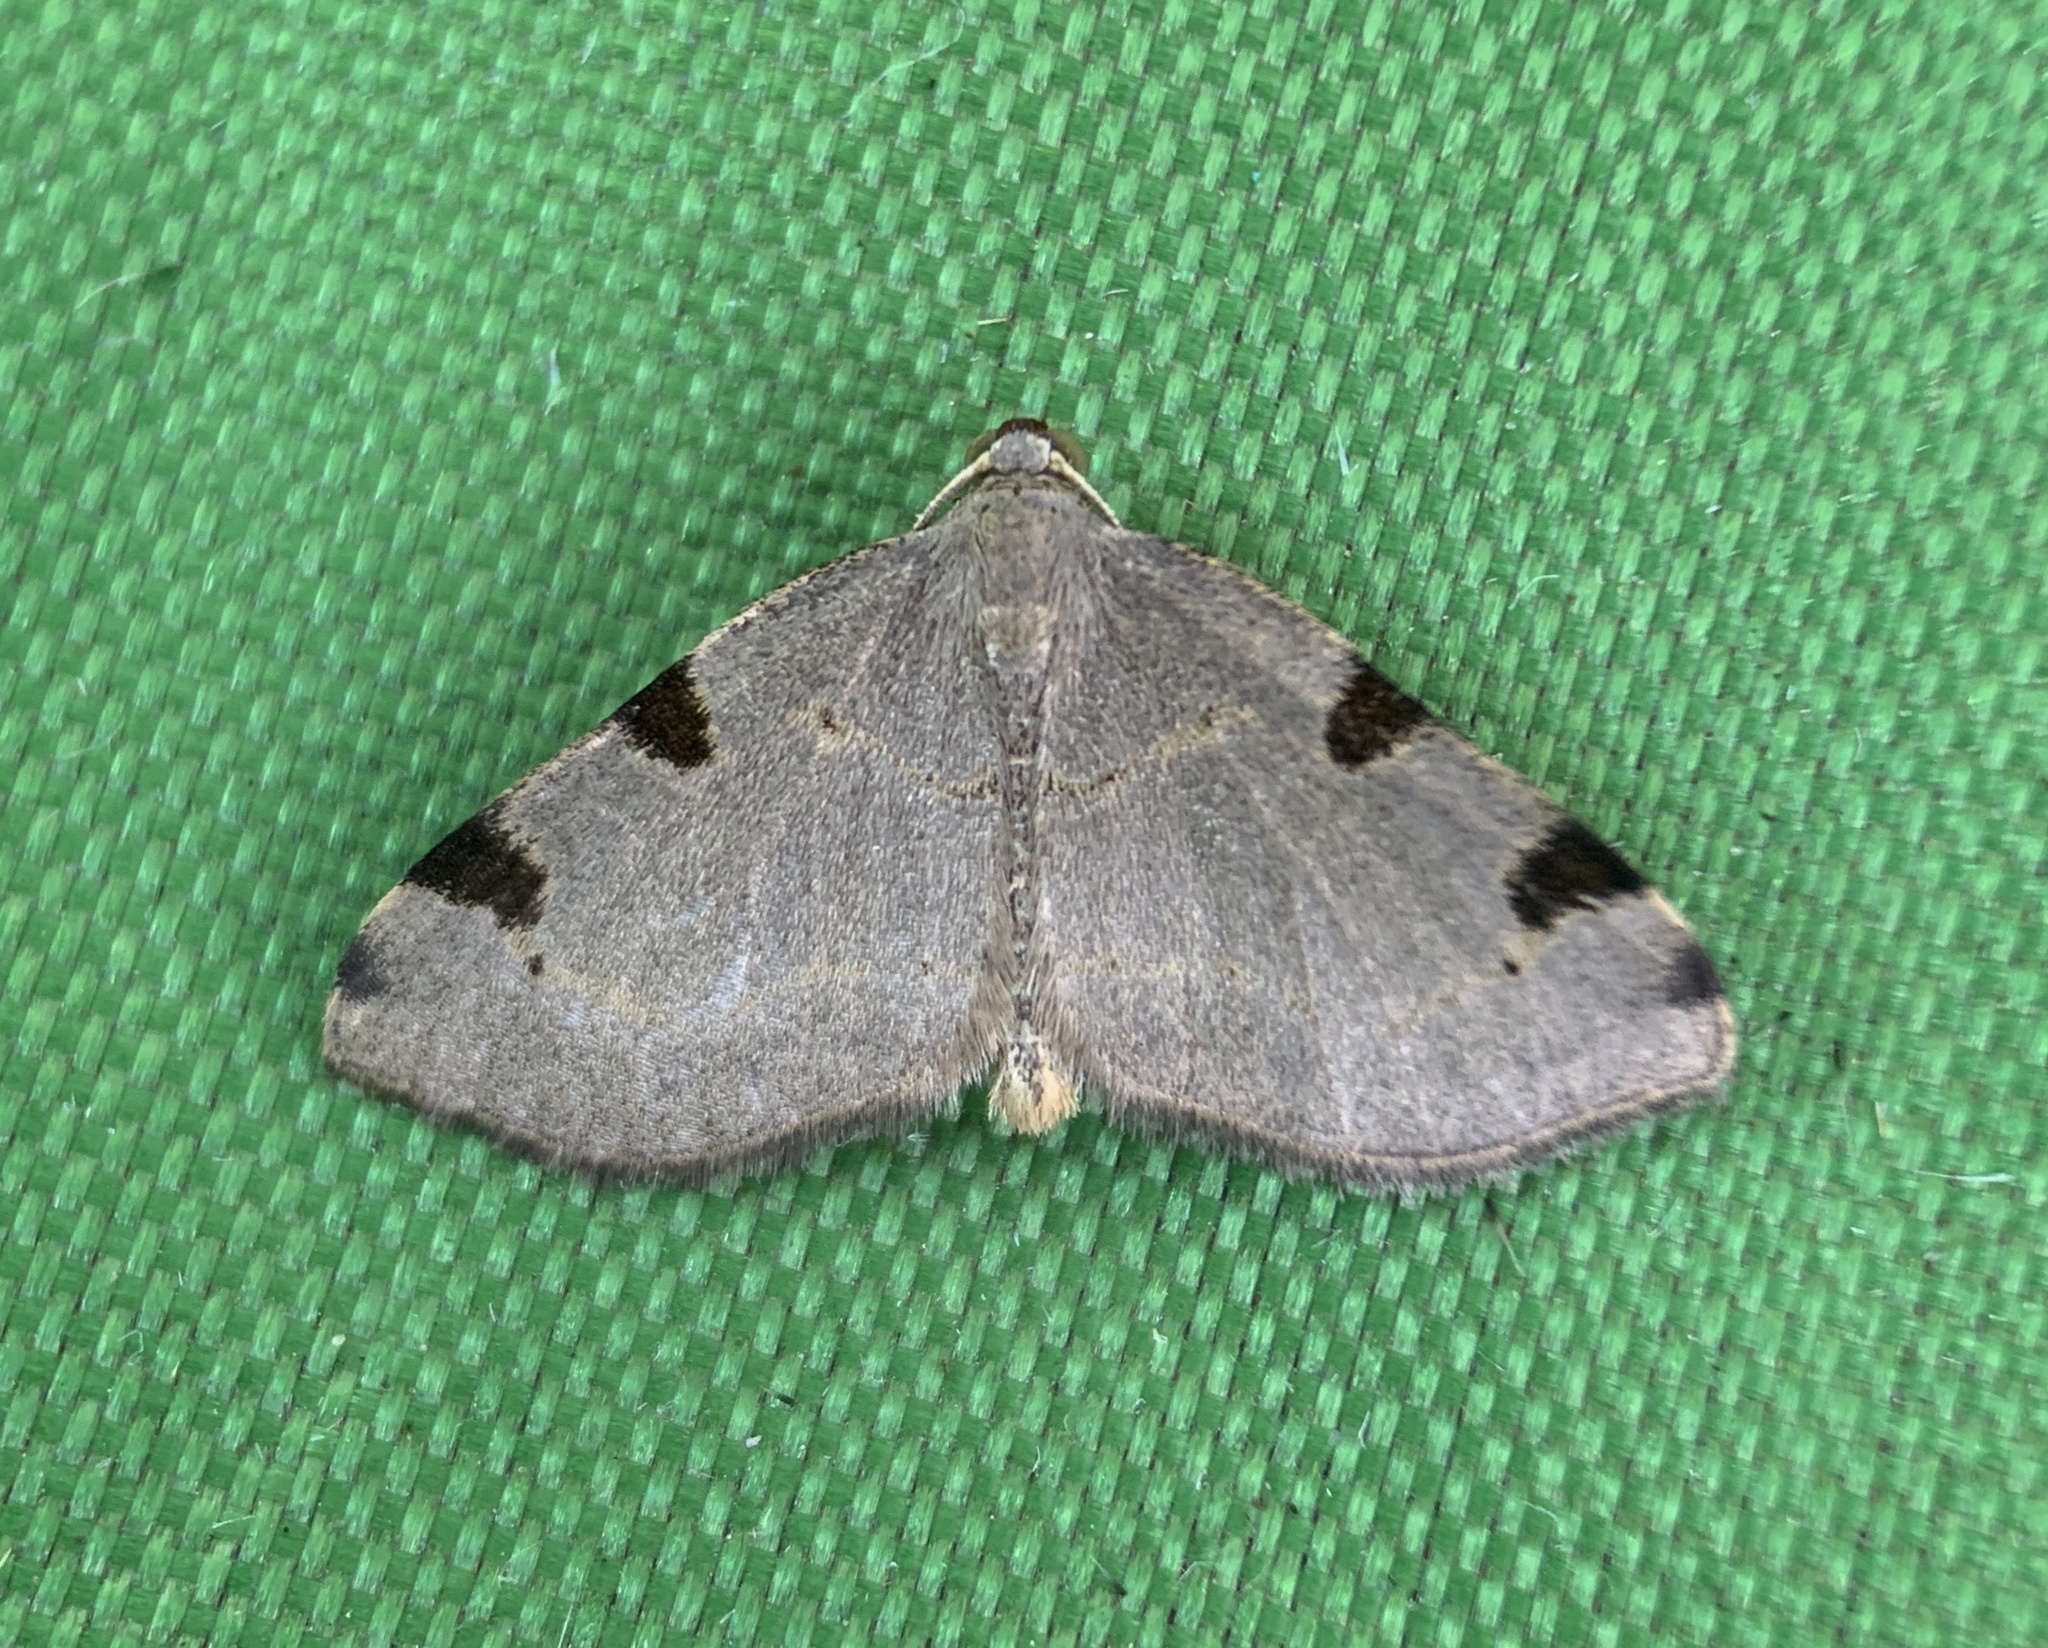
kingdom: Animalia
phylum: Arthropoda
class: Insecta
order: Lepidoptera
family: Geometridae
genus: Heterophleps
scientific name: Heterophleps triguttaria
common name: Three-spotted fillip
